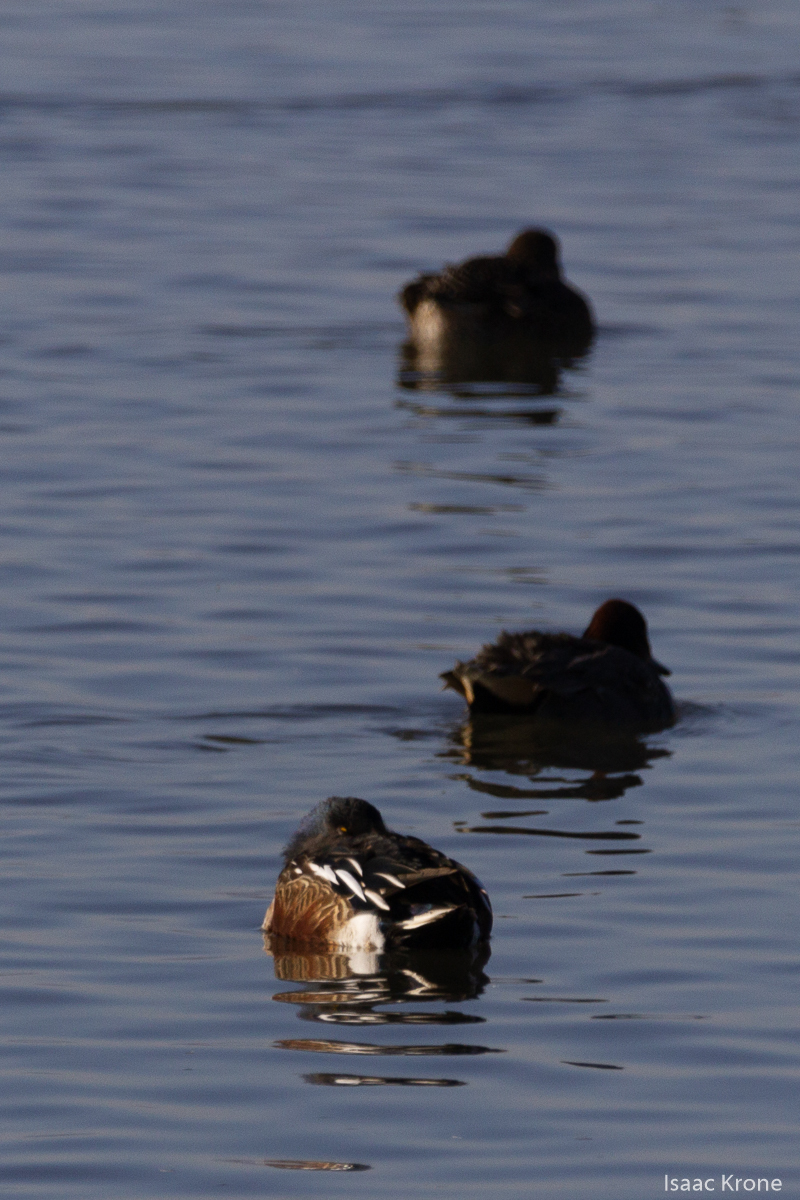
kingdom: Animalia
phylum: Chordata
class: Aves
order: Anseriformes
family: Anatidae
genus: Spatula
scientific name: Spatula clypeata
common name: Northern shoveler
